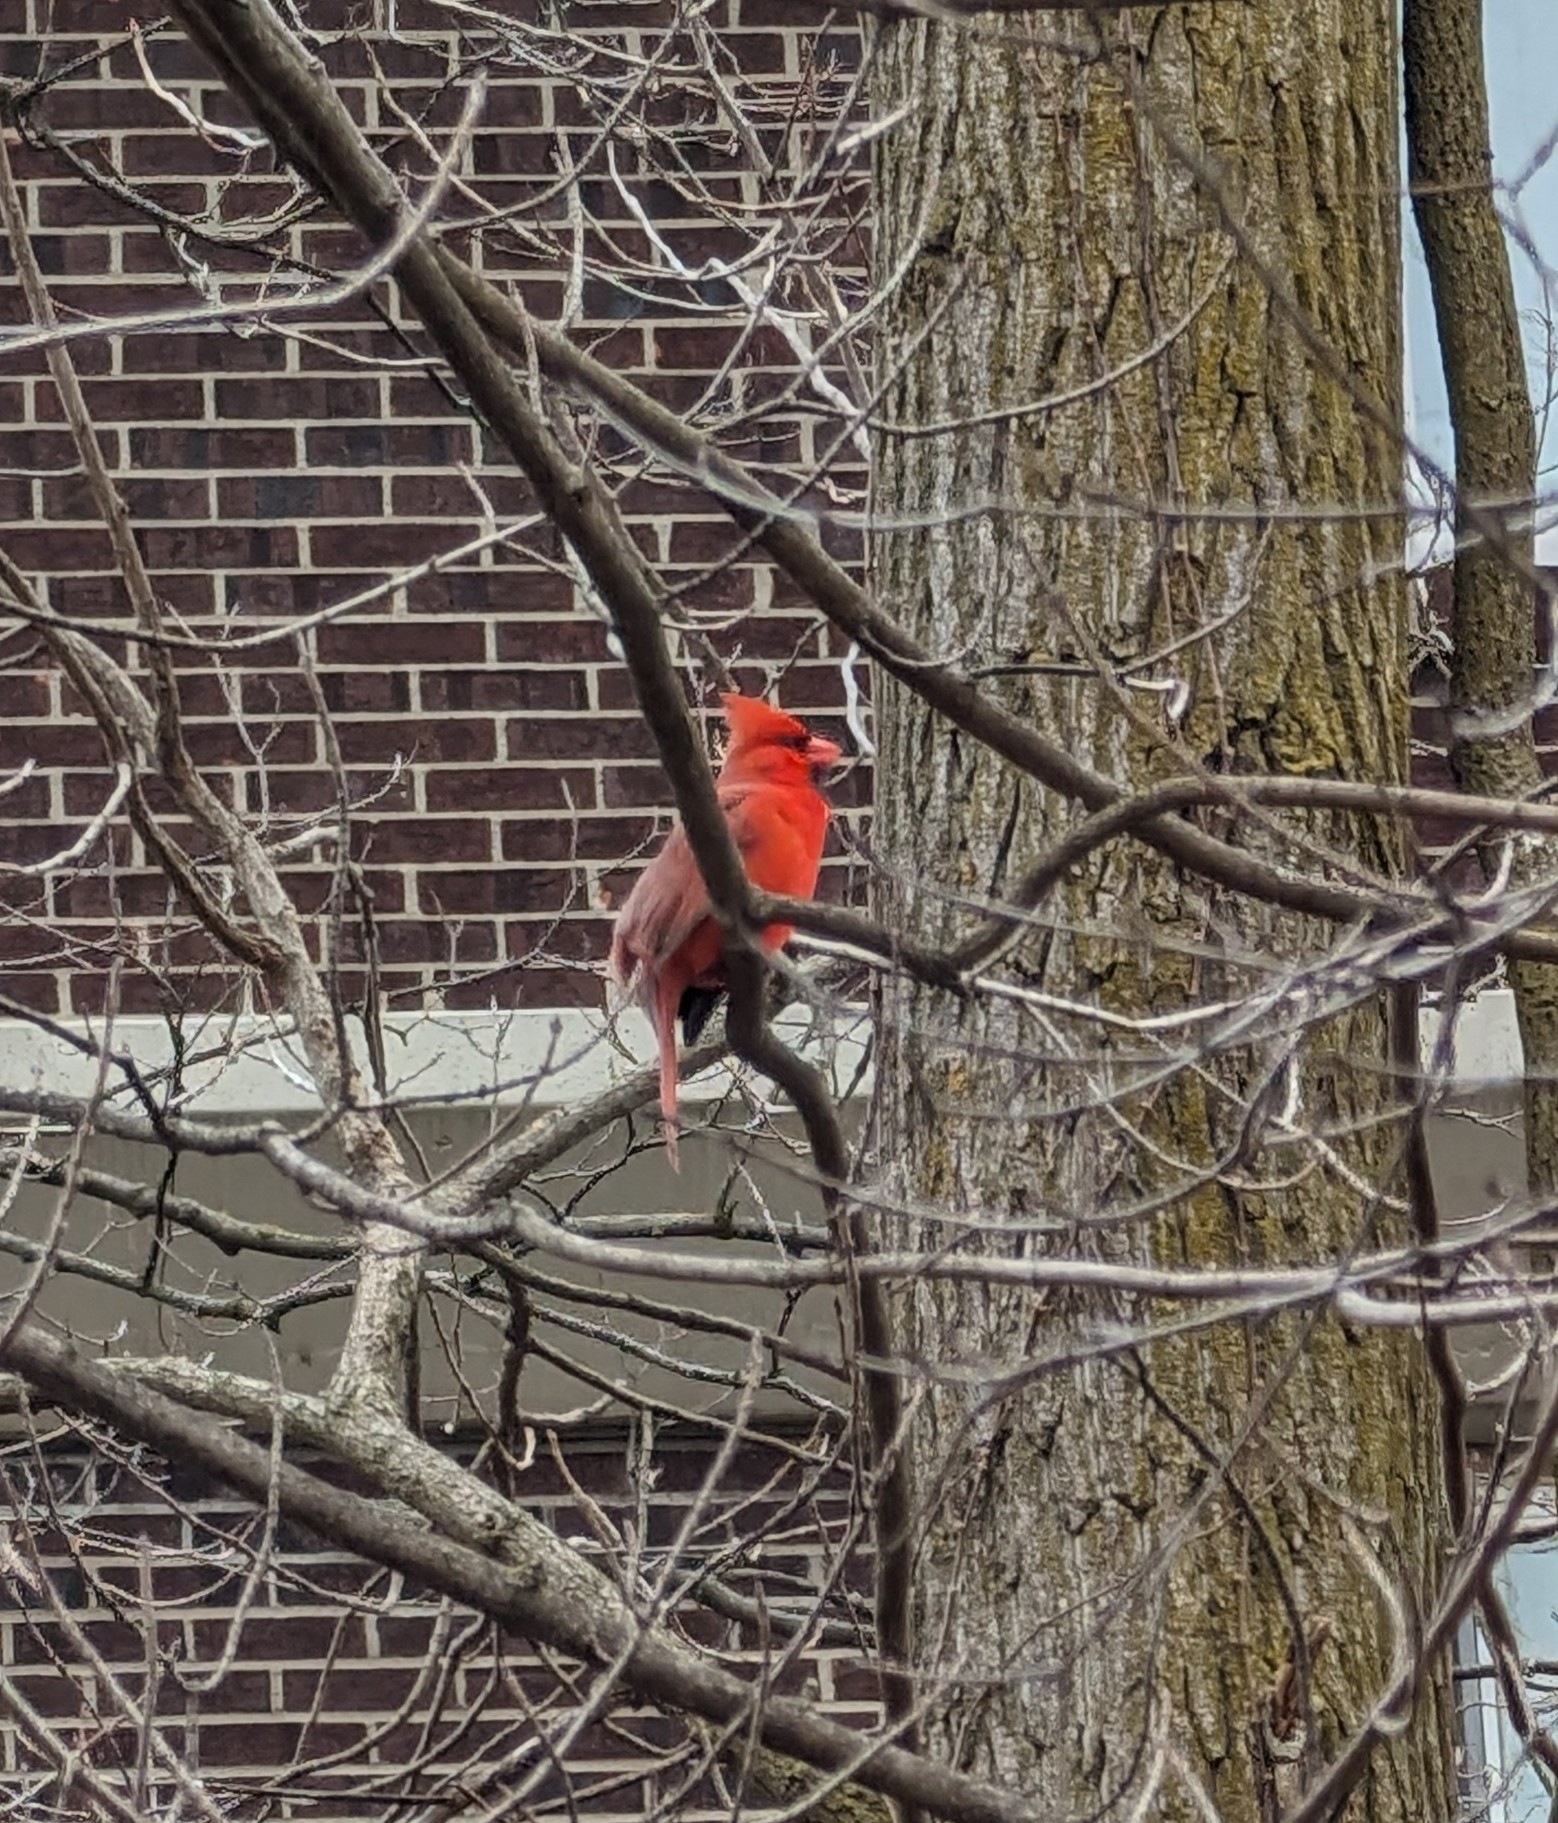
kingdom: Animalia
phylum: Chordata
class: Aves
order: Passeriformes
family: Cardinalidae
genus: Cardinalis
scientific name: Cardinalis cardinalis
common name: Northern cardinal
